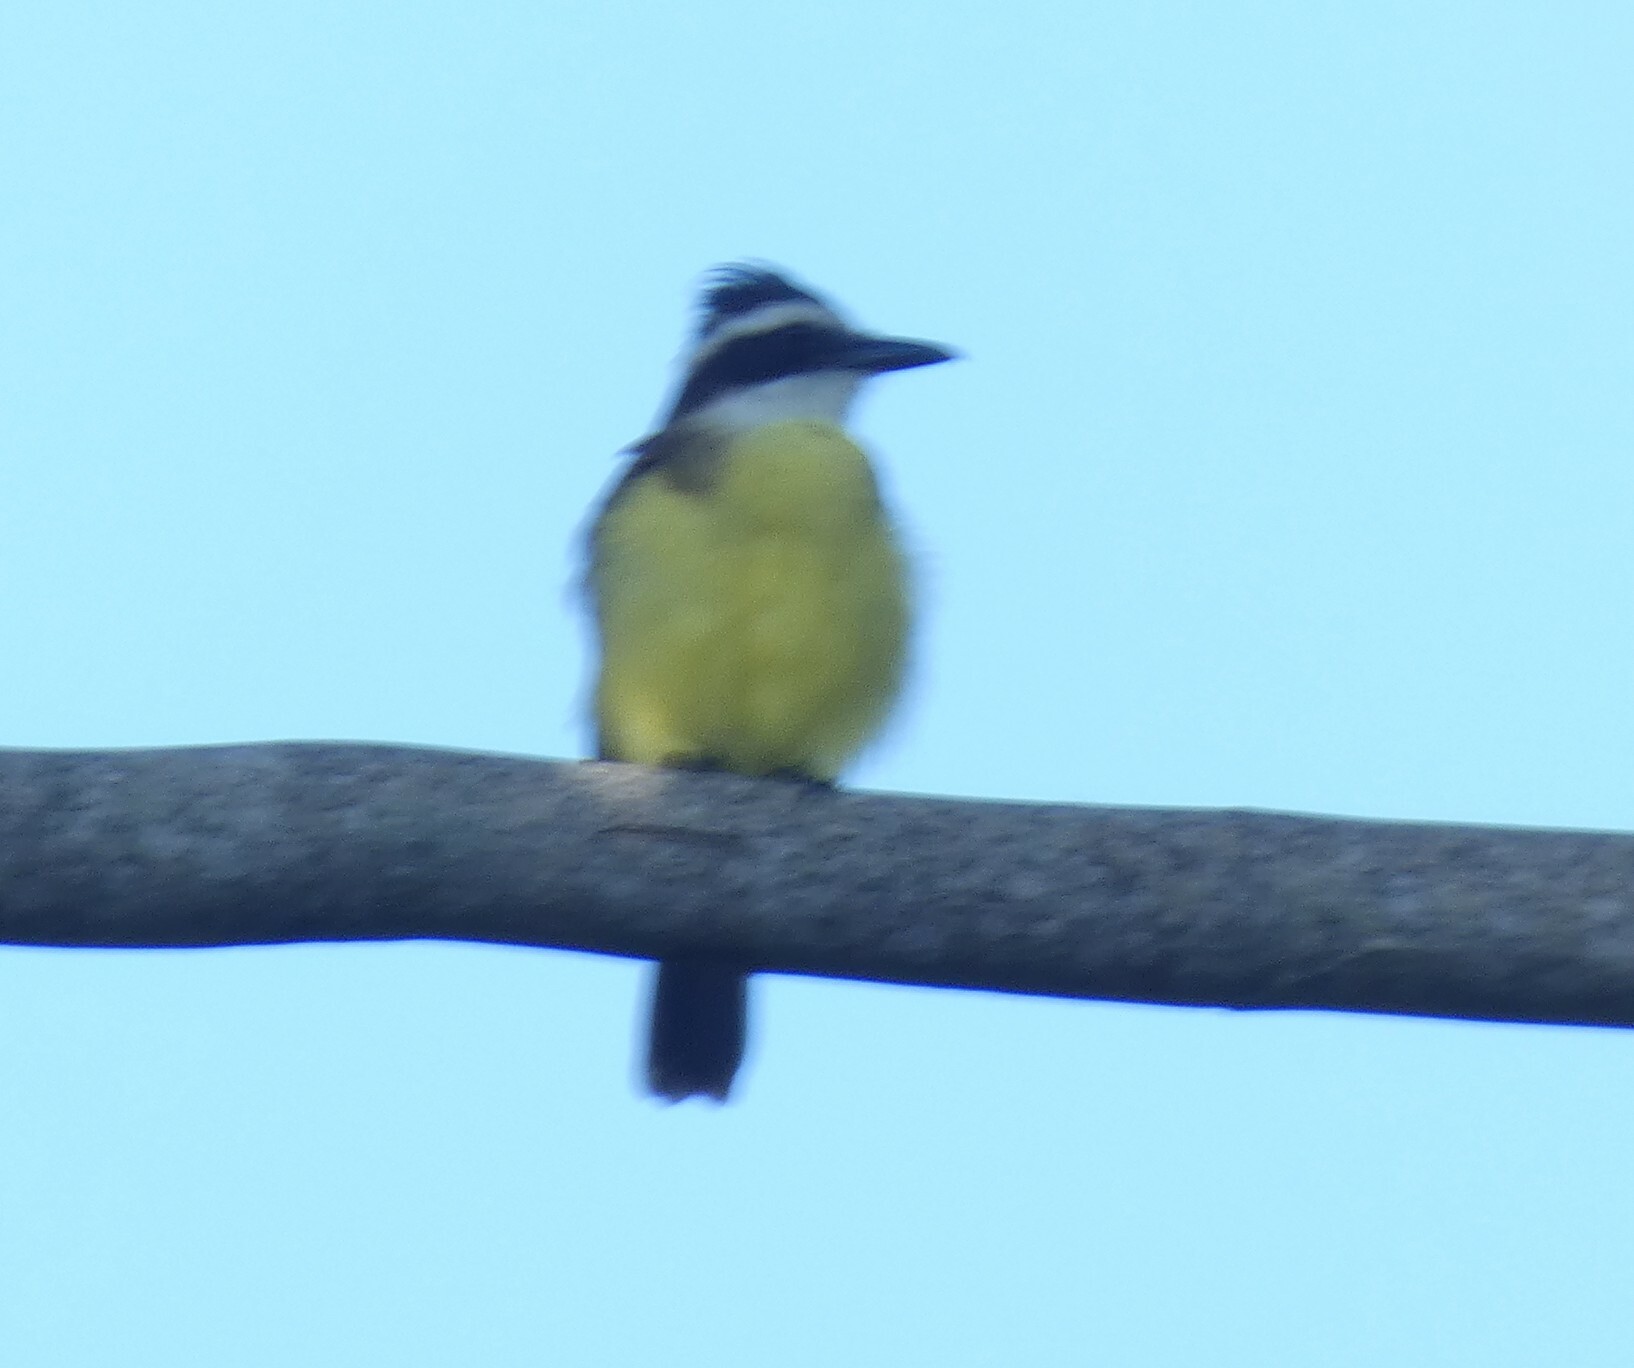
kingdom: Animalia
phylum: Chordata
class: Aves
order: Passeriformes
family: Tyrannidae
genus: Pitangus
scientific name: Pitangus sulphuratus
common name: Great kiskadee
